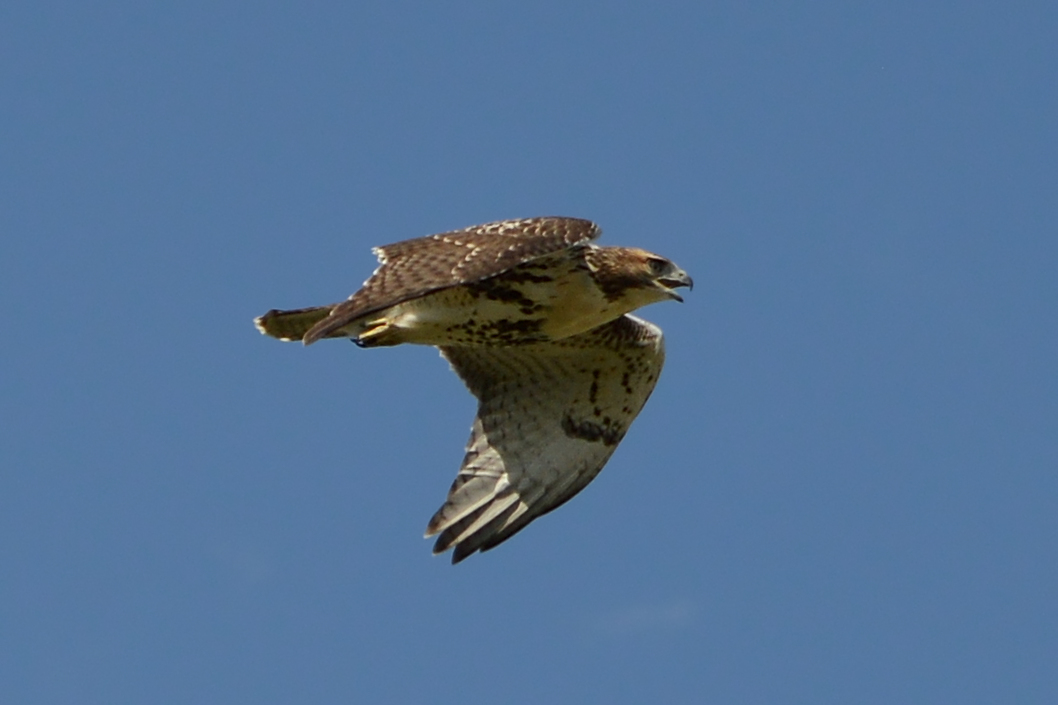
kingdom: Animalia
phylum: Chordata
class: Aves
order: Accipitriformes
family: Accipitridae
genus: Buteo
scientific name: Buteo jamaicensis
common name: Red-tailed hawk
